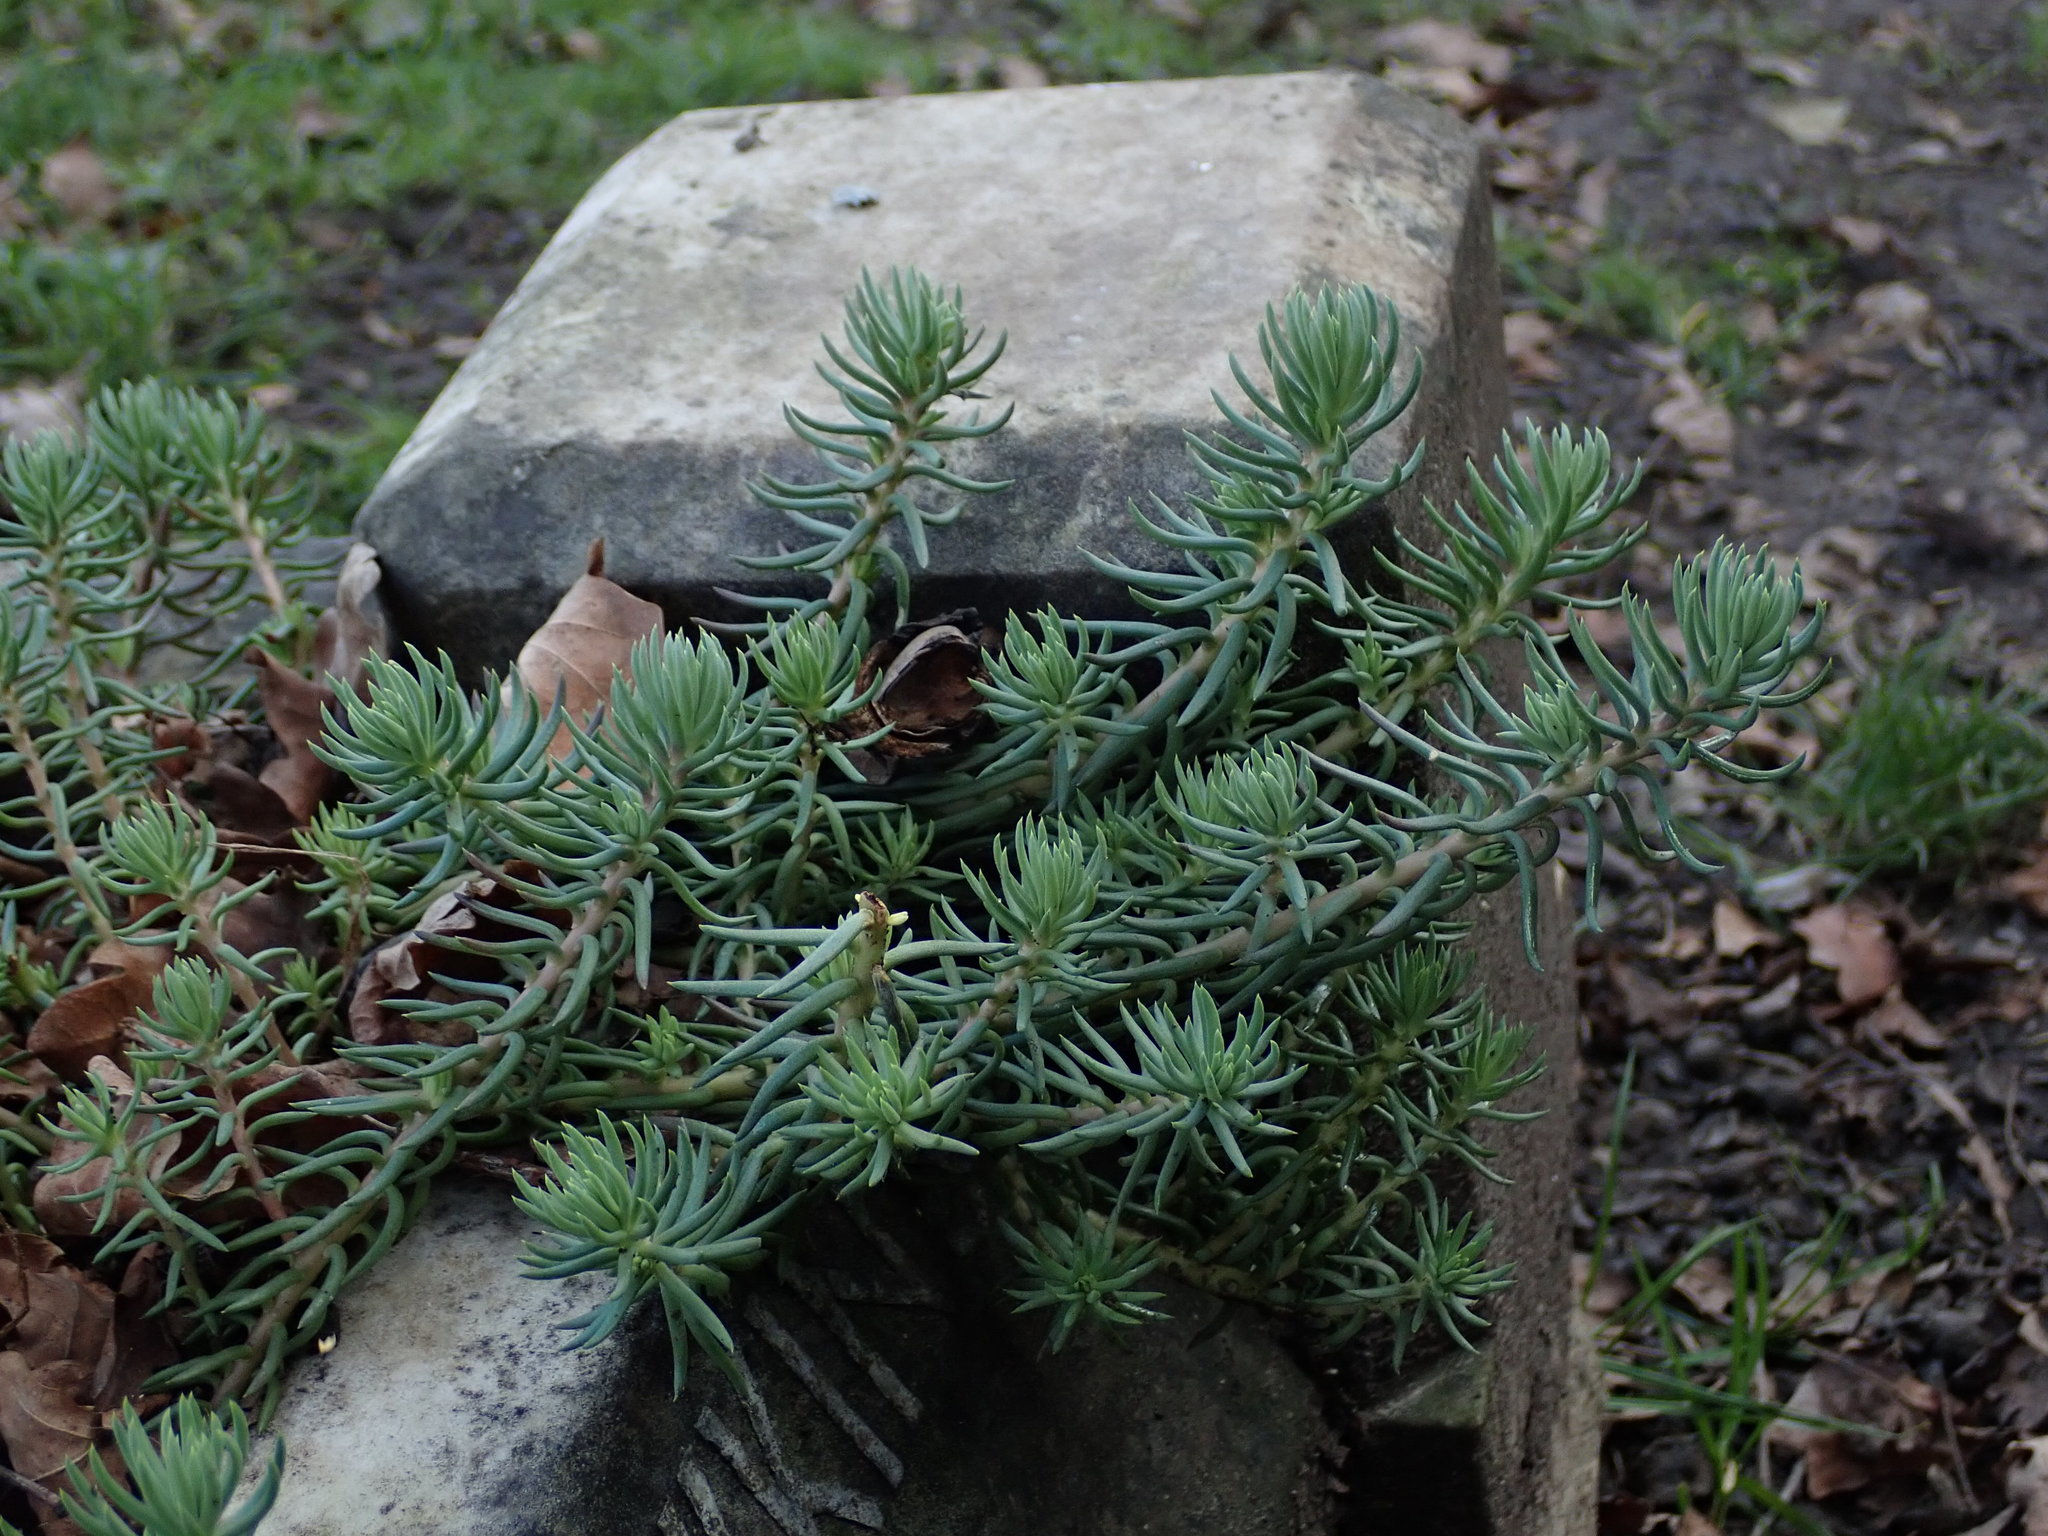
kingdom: Plantae
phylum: Tracheophyta
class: Magnoliopsida
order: Saxifragales
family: Crassulaceae
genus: Petrosedum
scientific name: Petrosedum rupestre
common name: Jenny's stonecrop
